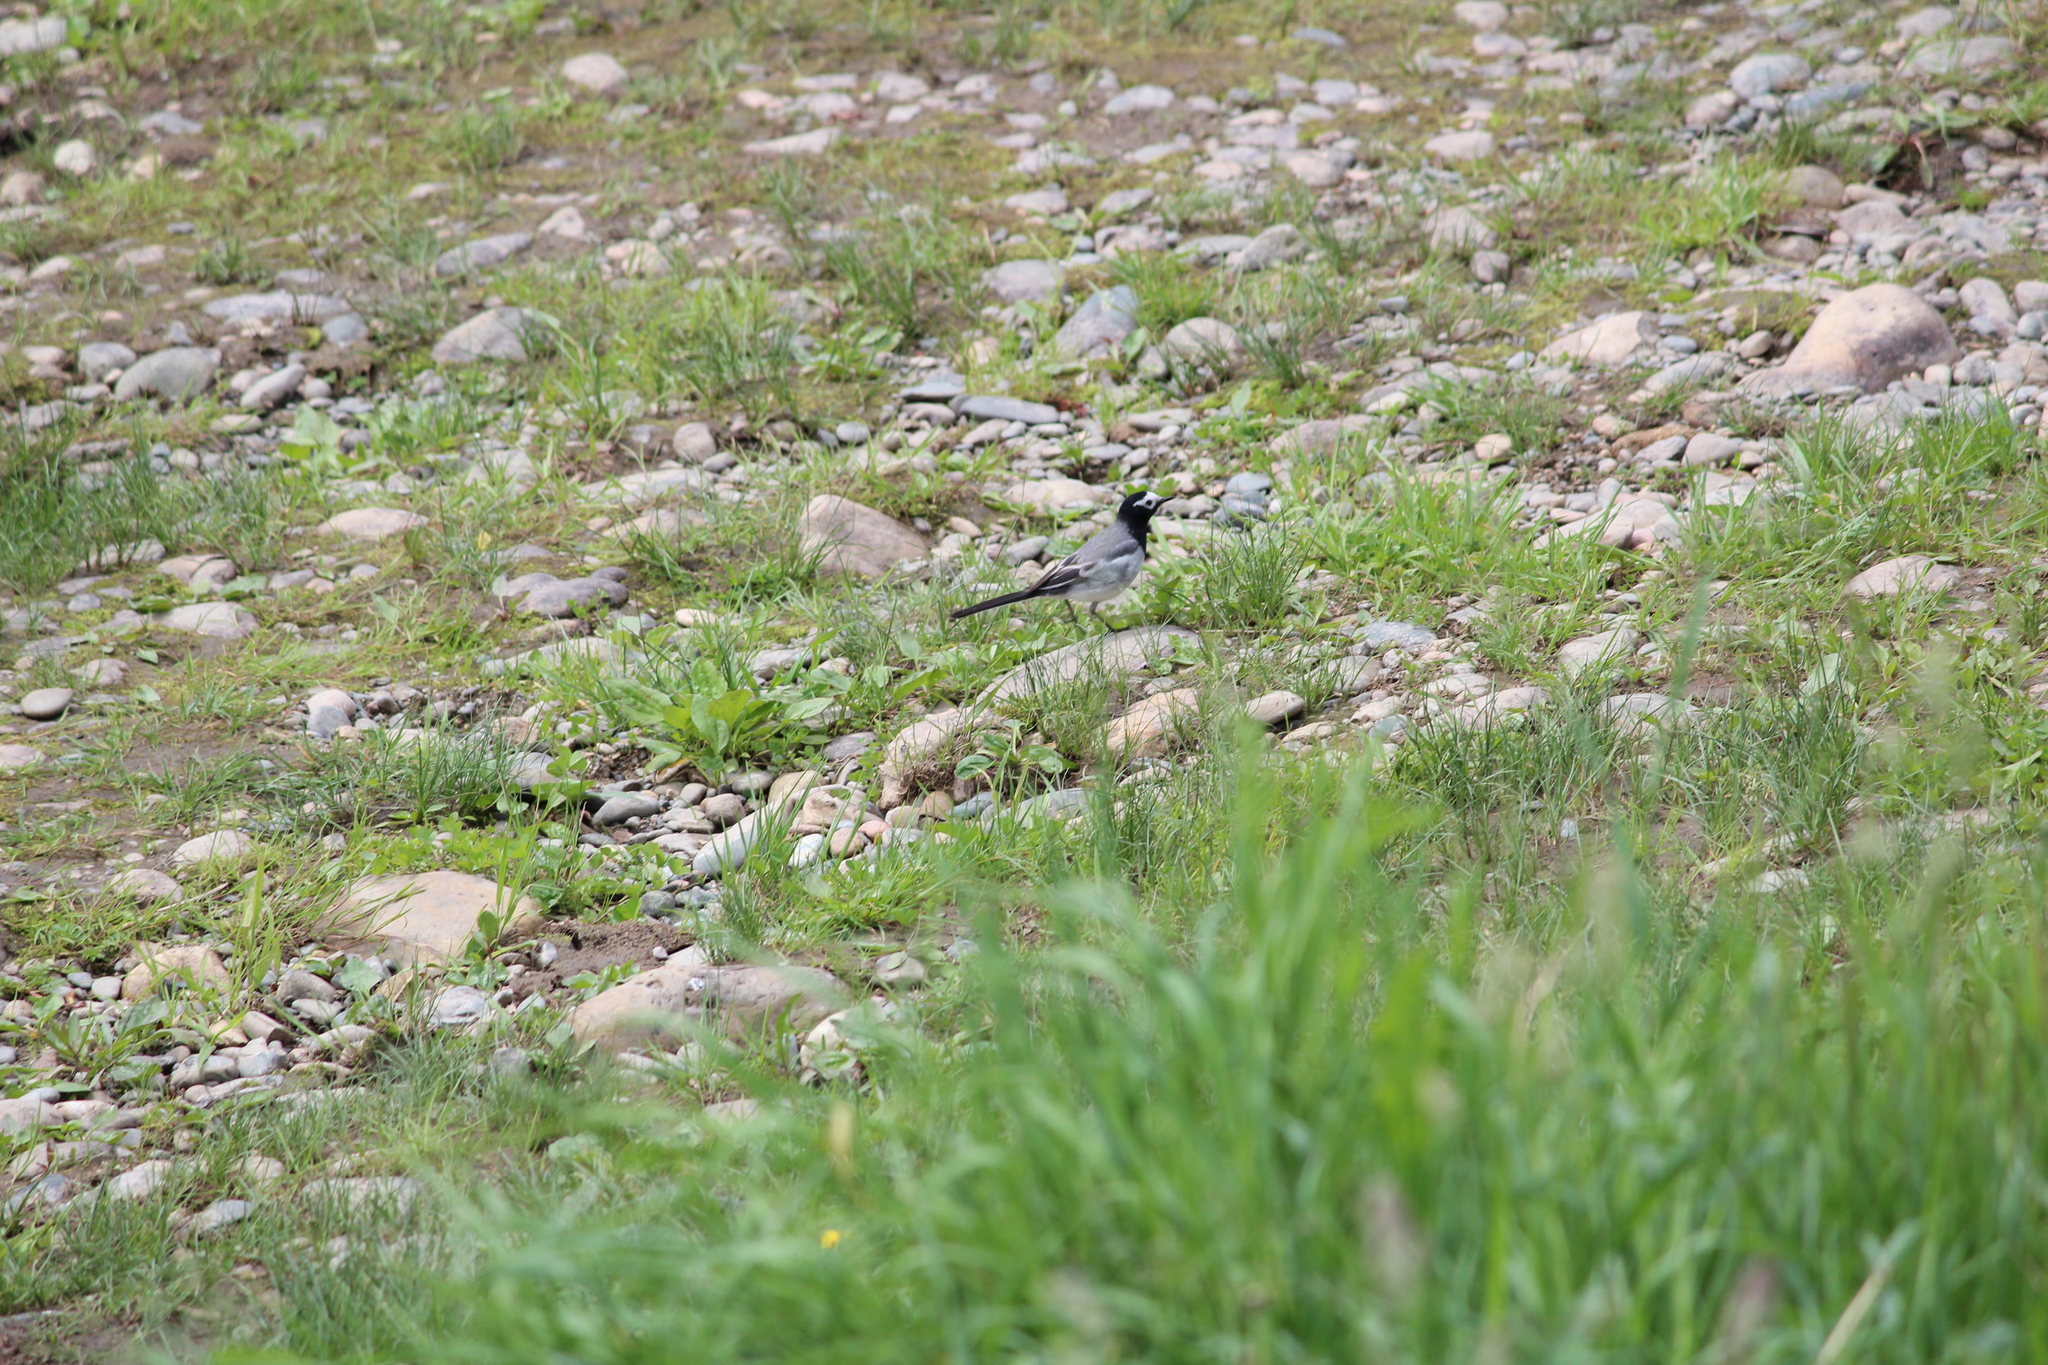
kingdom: Animalia
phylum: Chordata
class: Aves
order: Passeriformes
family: Motacillidae
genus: Motacilla
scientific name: Motacilla alba
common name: White wagtail
